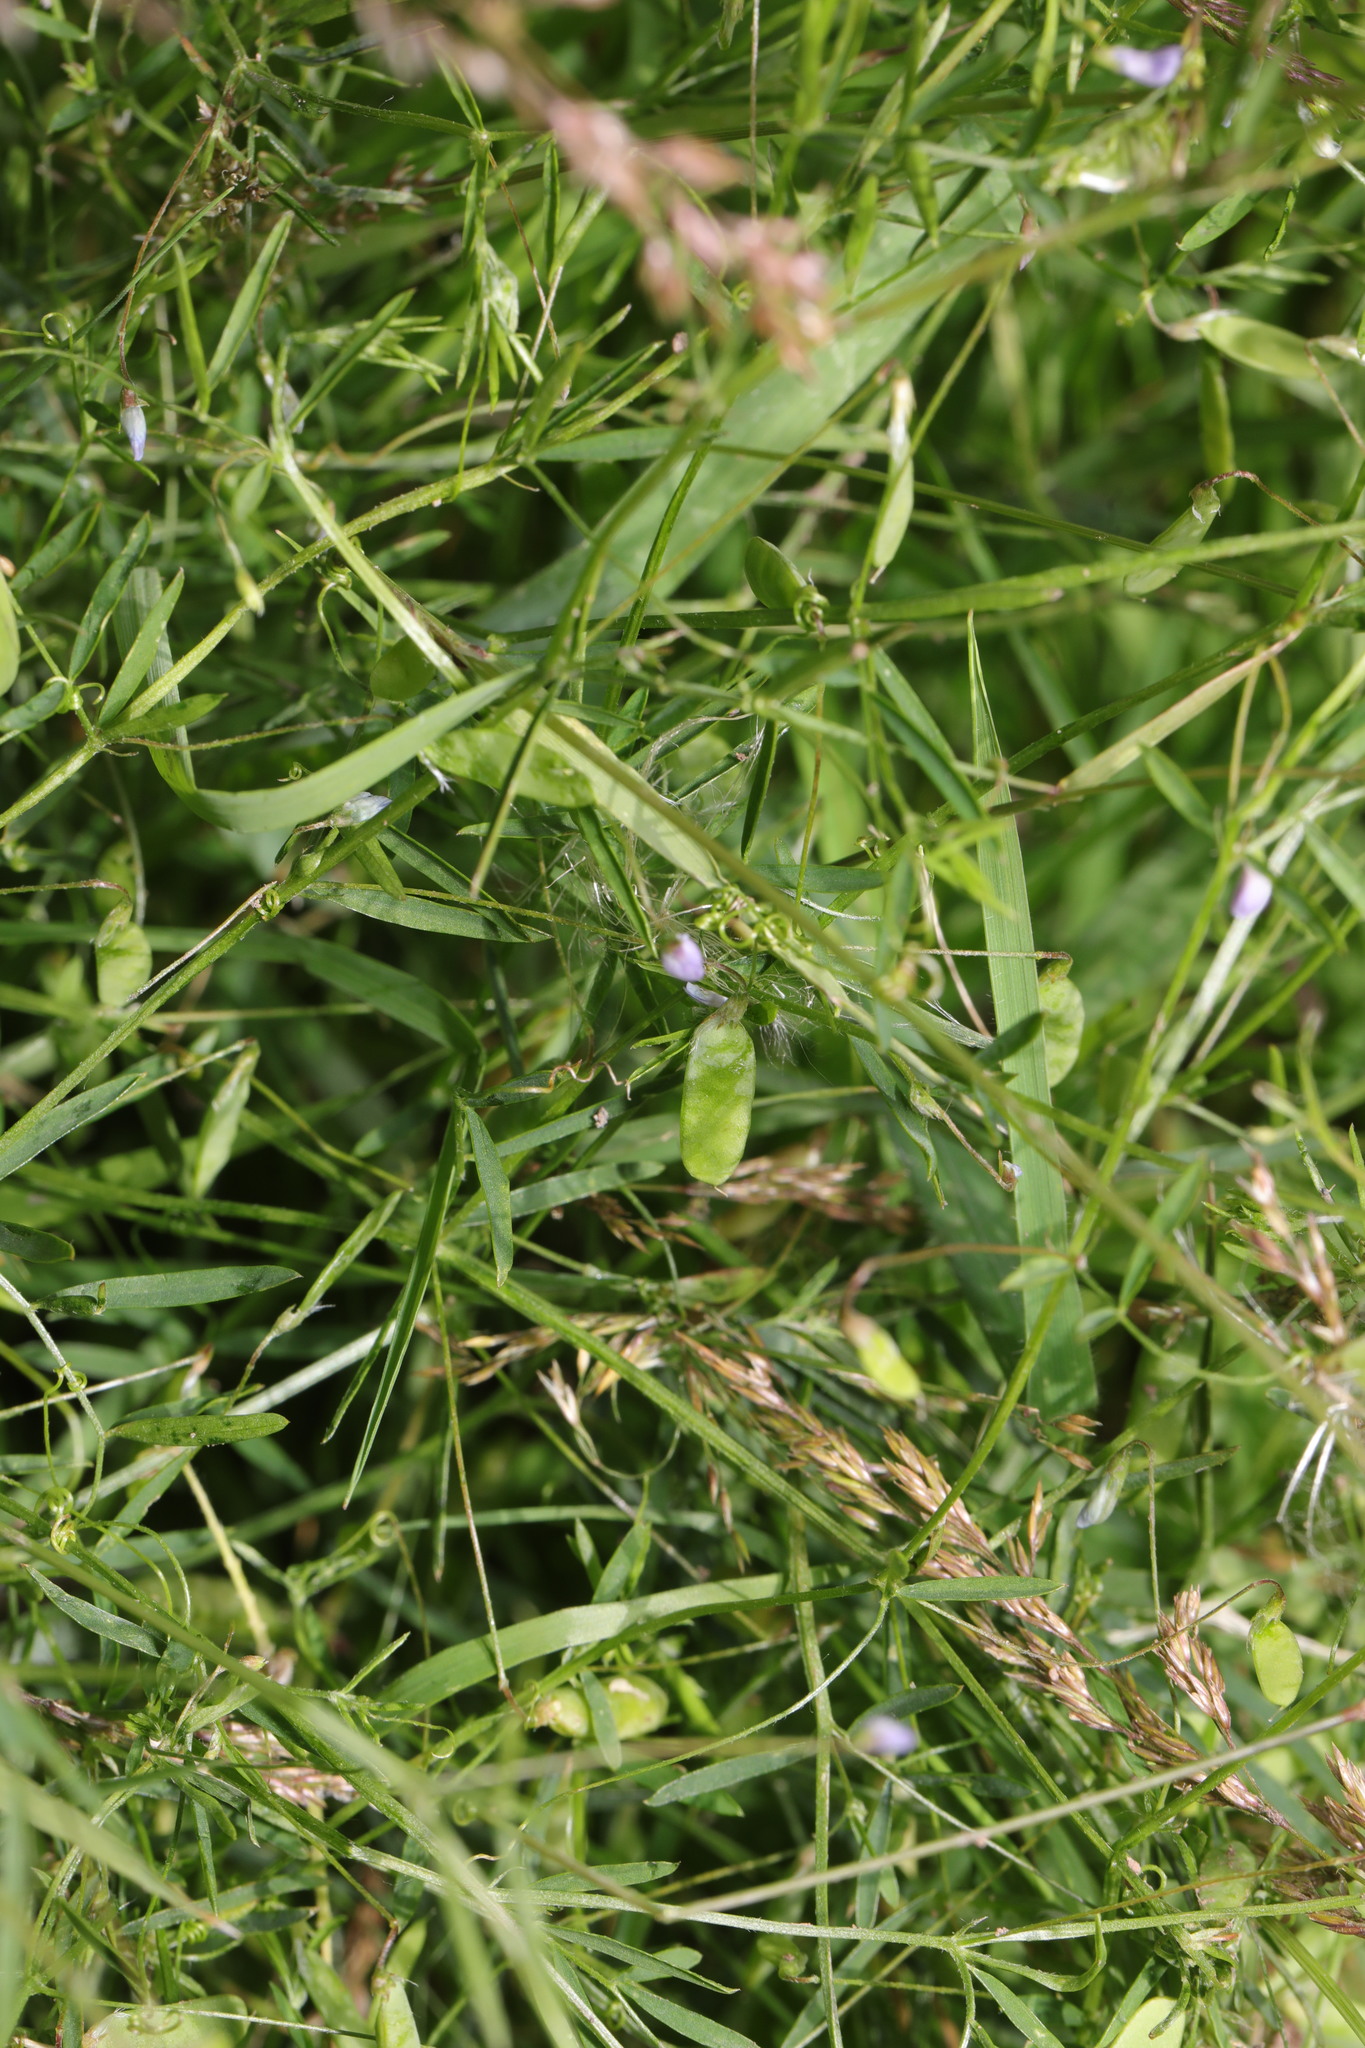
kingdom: Plantae
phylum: Tracheophyta
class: Magnoliopsida
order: Fabales
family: Fabaceae
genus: Vicia
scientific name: Vicia tetrasperma
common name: Smooth tare
